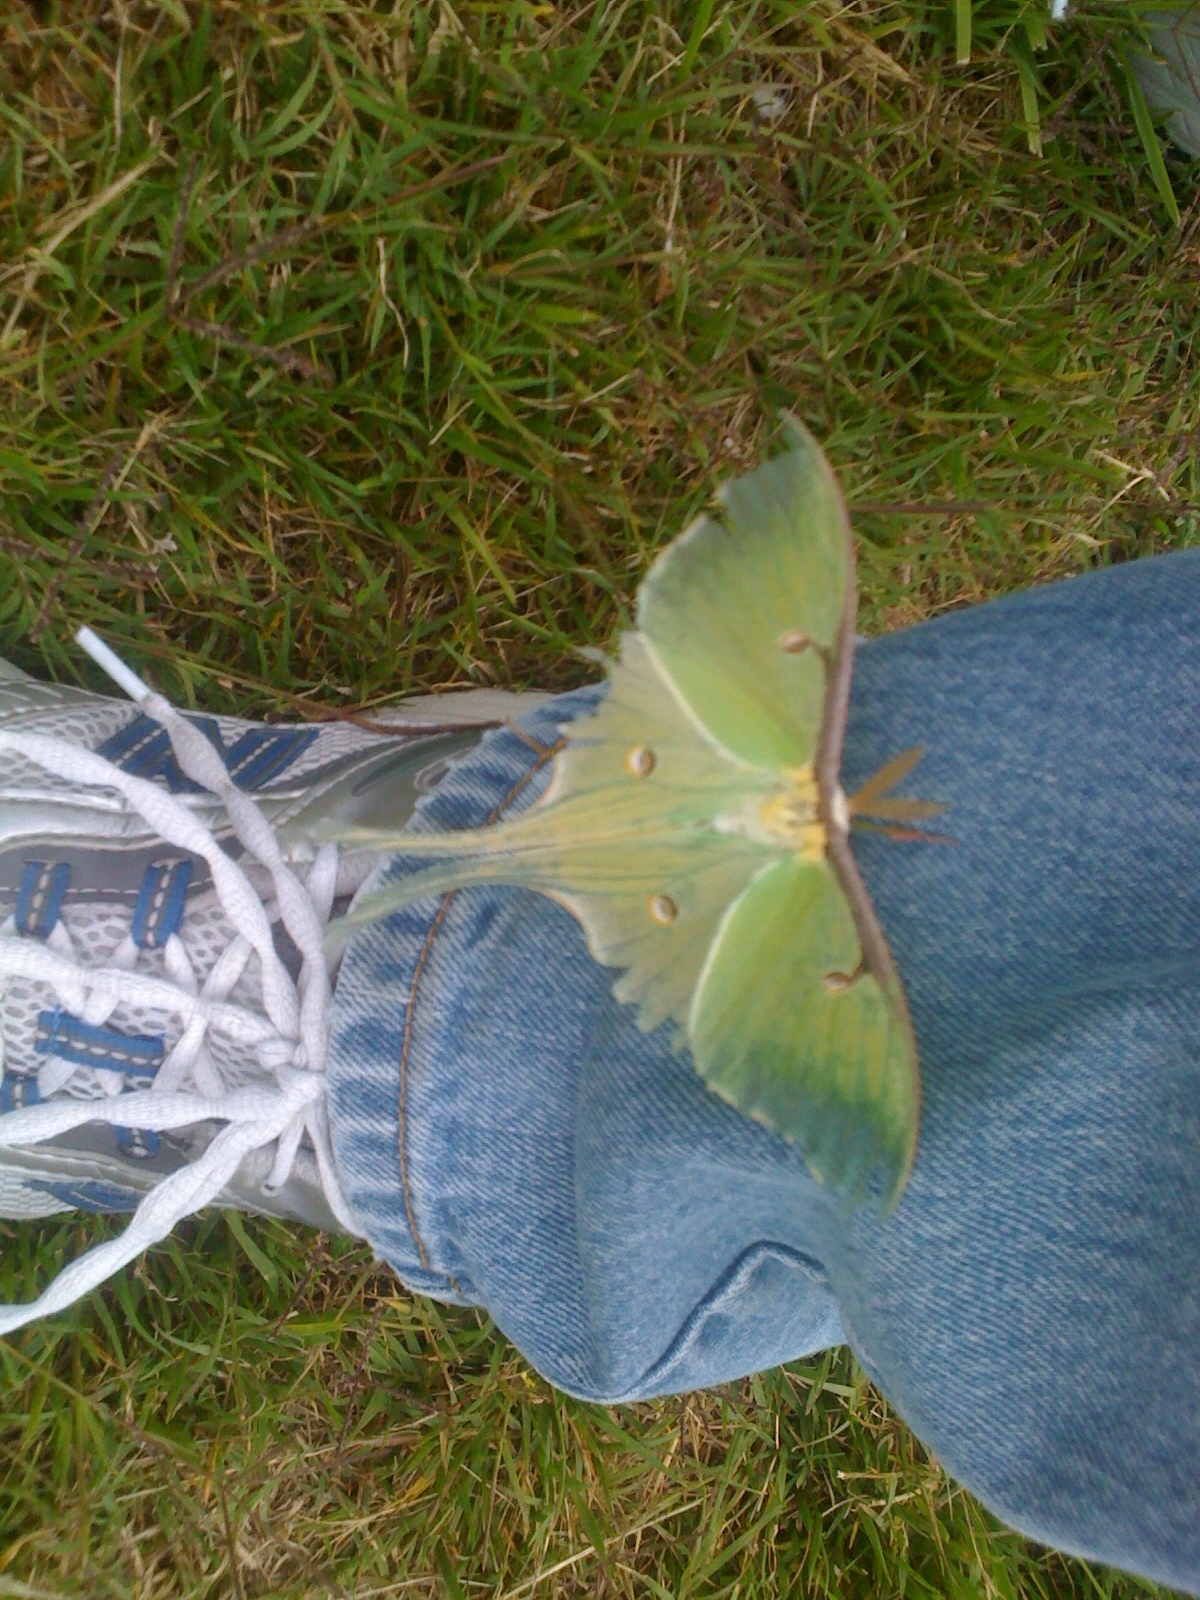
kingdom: Animalia
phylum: Arthropoda
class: Insecta
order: Lepidoptera
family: Saturniidae
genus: Actias
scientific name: Actias luna
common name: Luna moth
